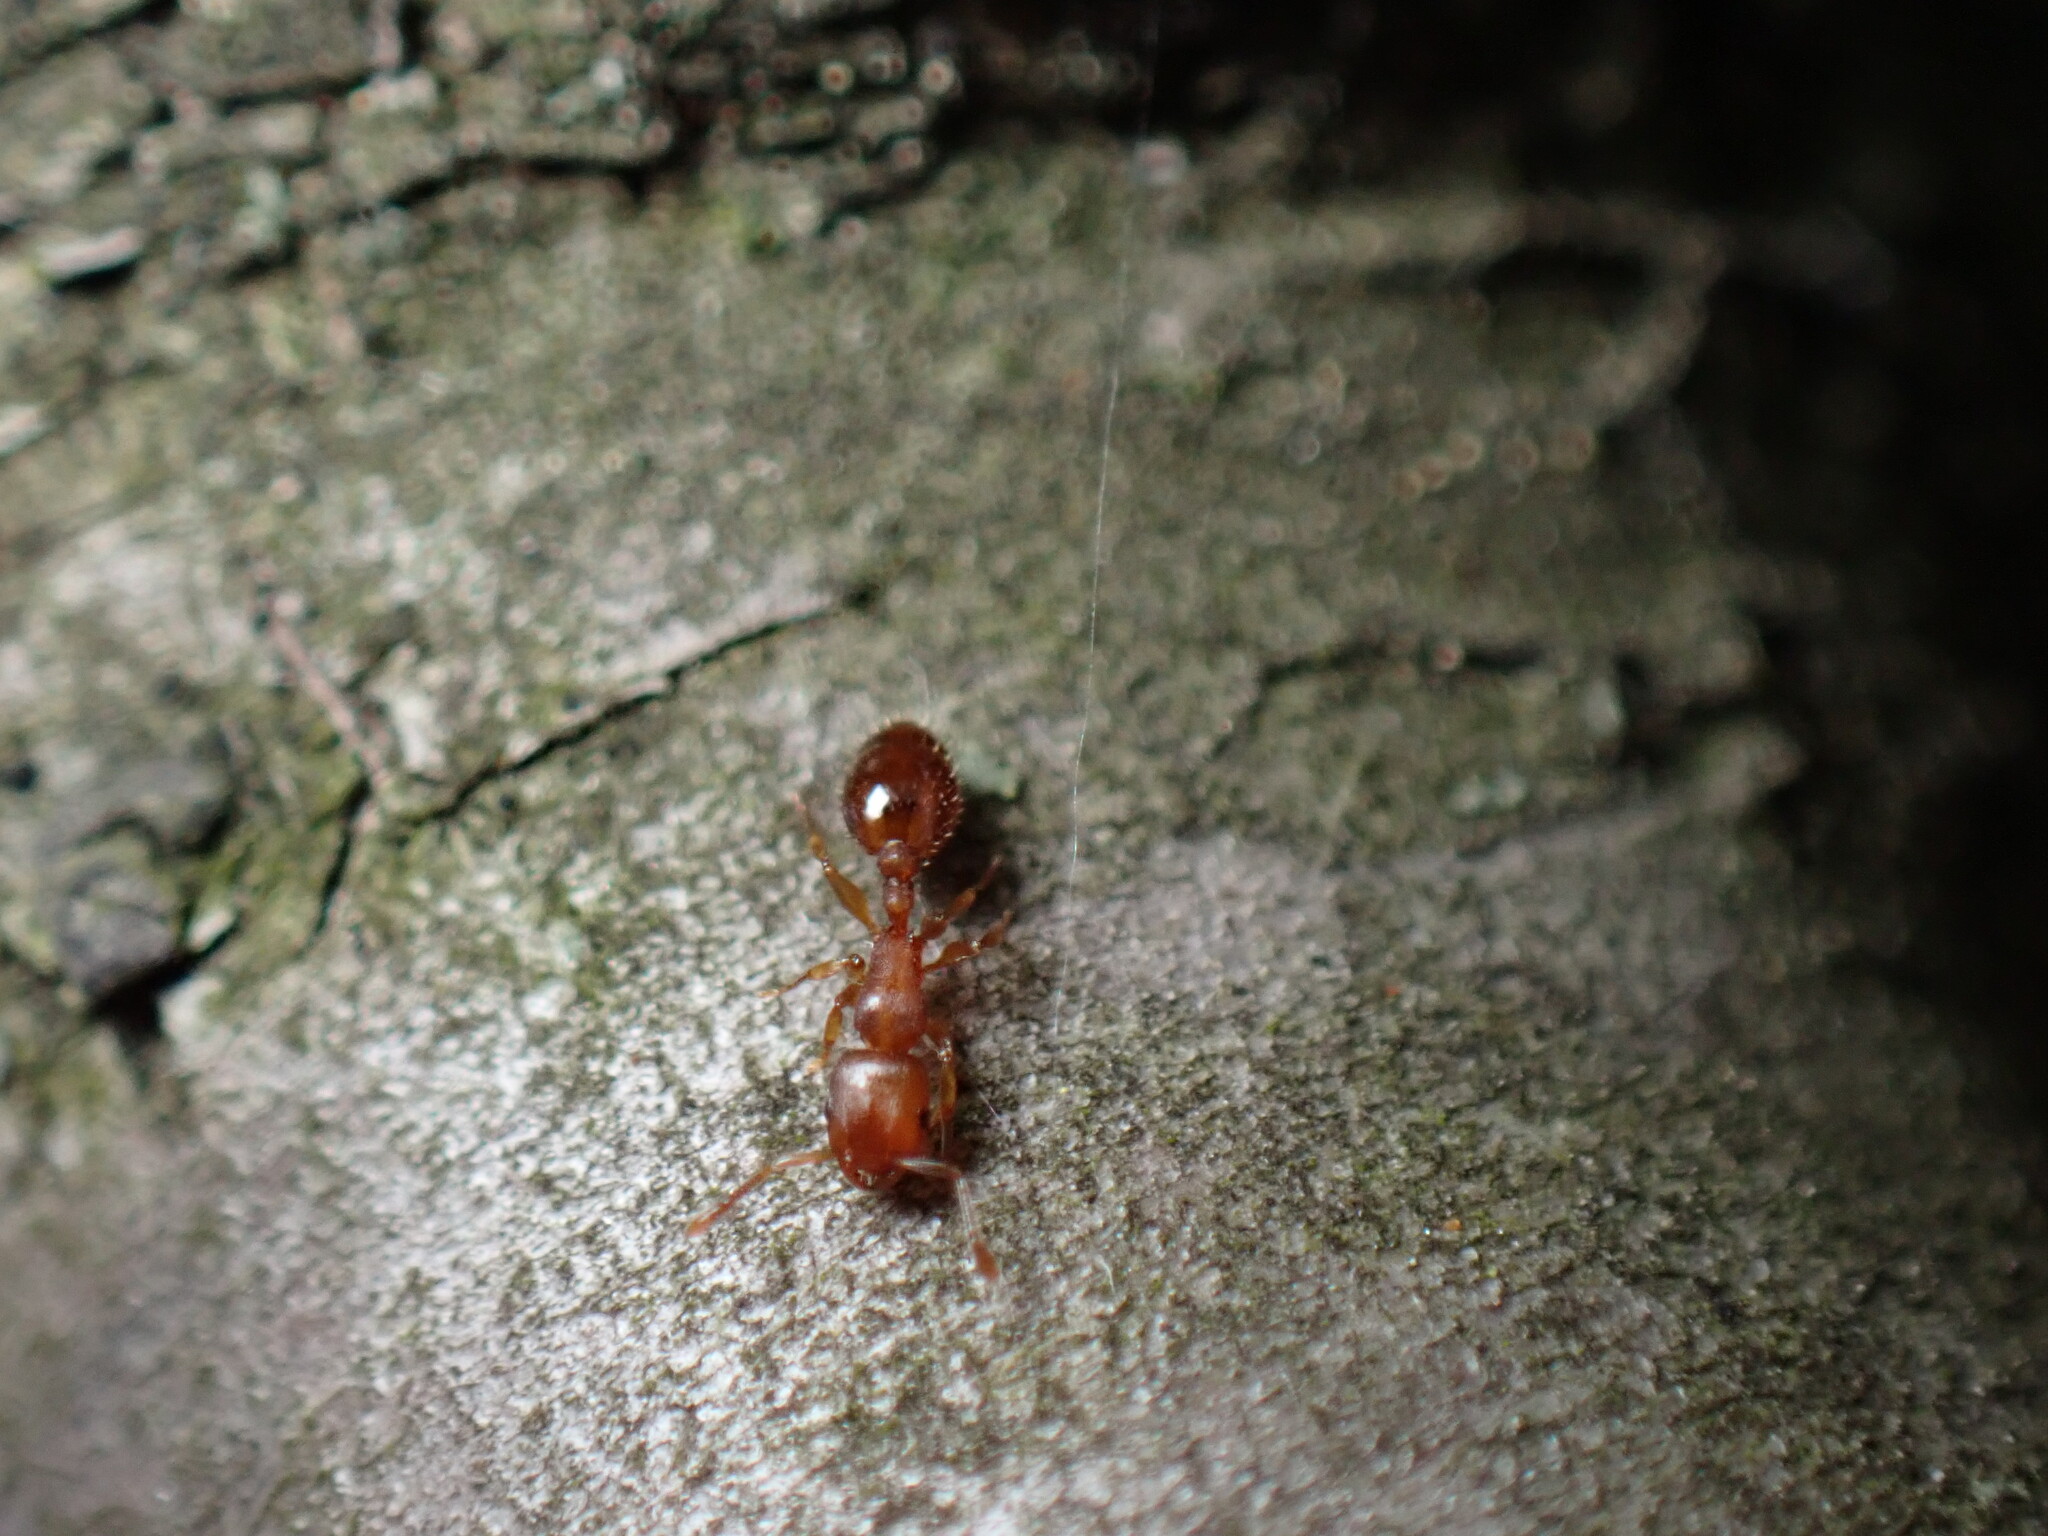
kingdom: Animalia
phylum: Arthropoda
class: Insecta
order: Hymenoptera
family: Formicidae
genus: Leptothorax
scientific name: Leptothorax schaumii
